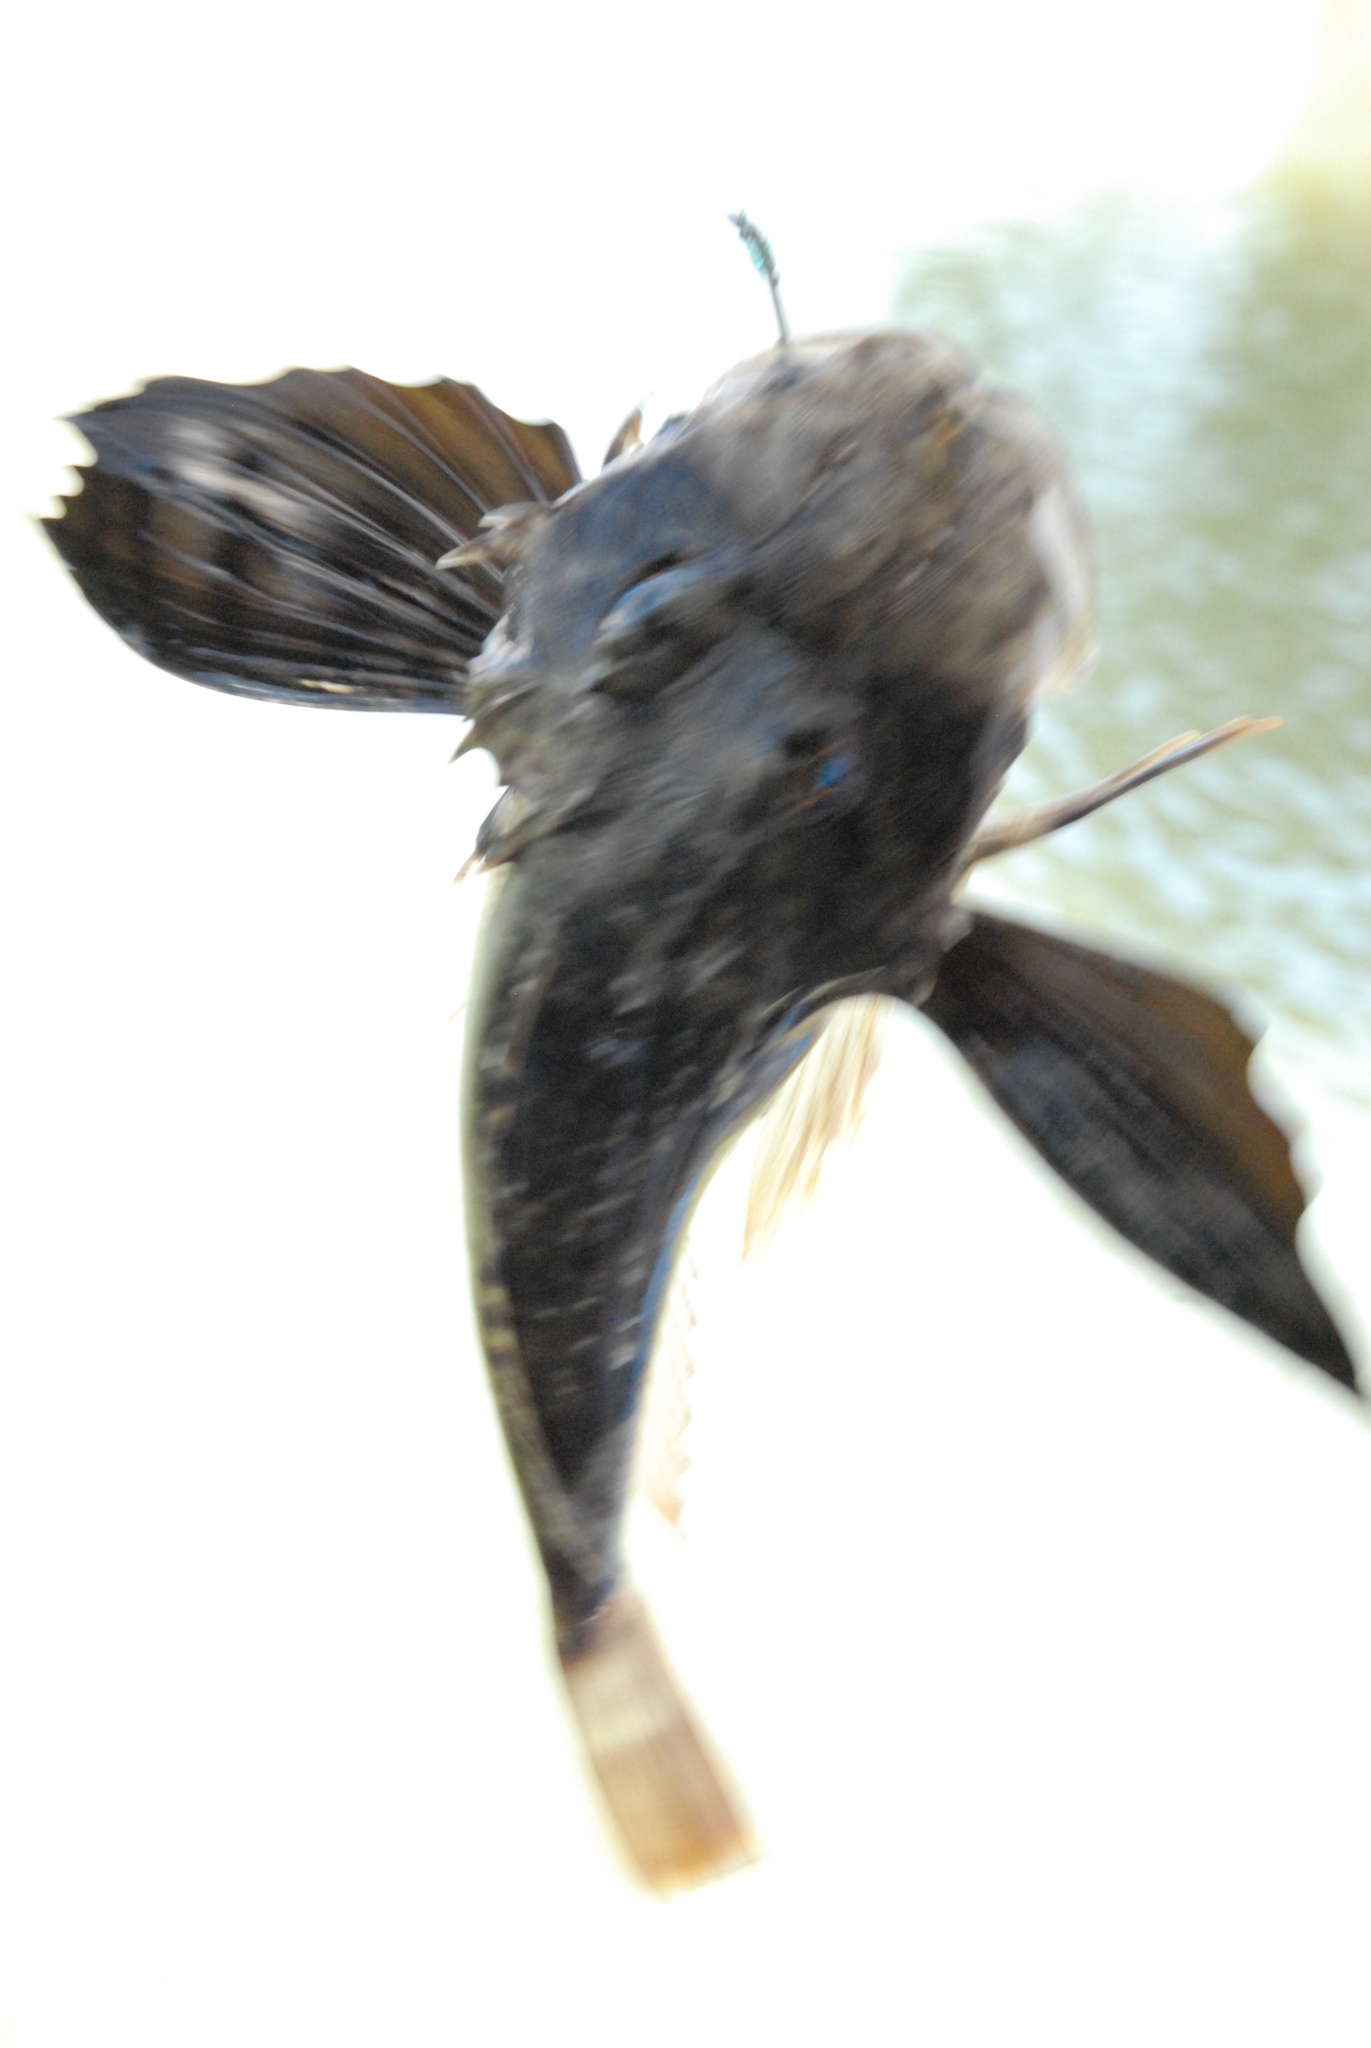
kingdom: Animalia
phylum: Chordata
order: Scorpaeniformes
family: Triglidae
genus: Prionotus
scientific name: Prionotus tribulus
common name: Bighead searobin
